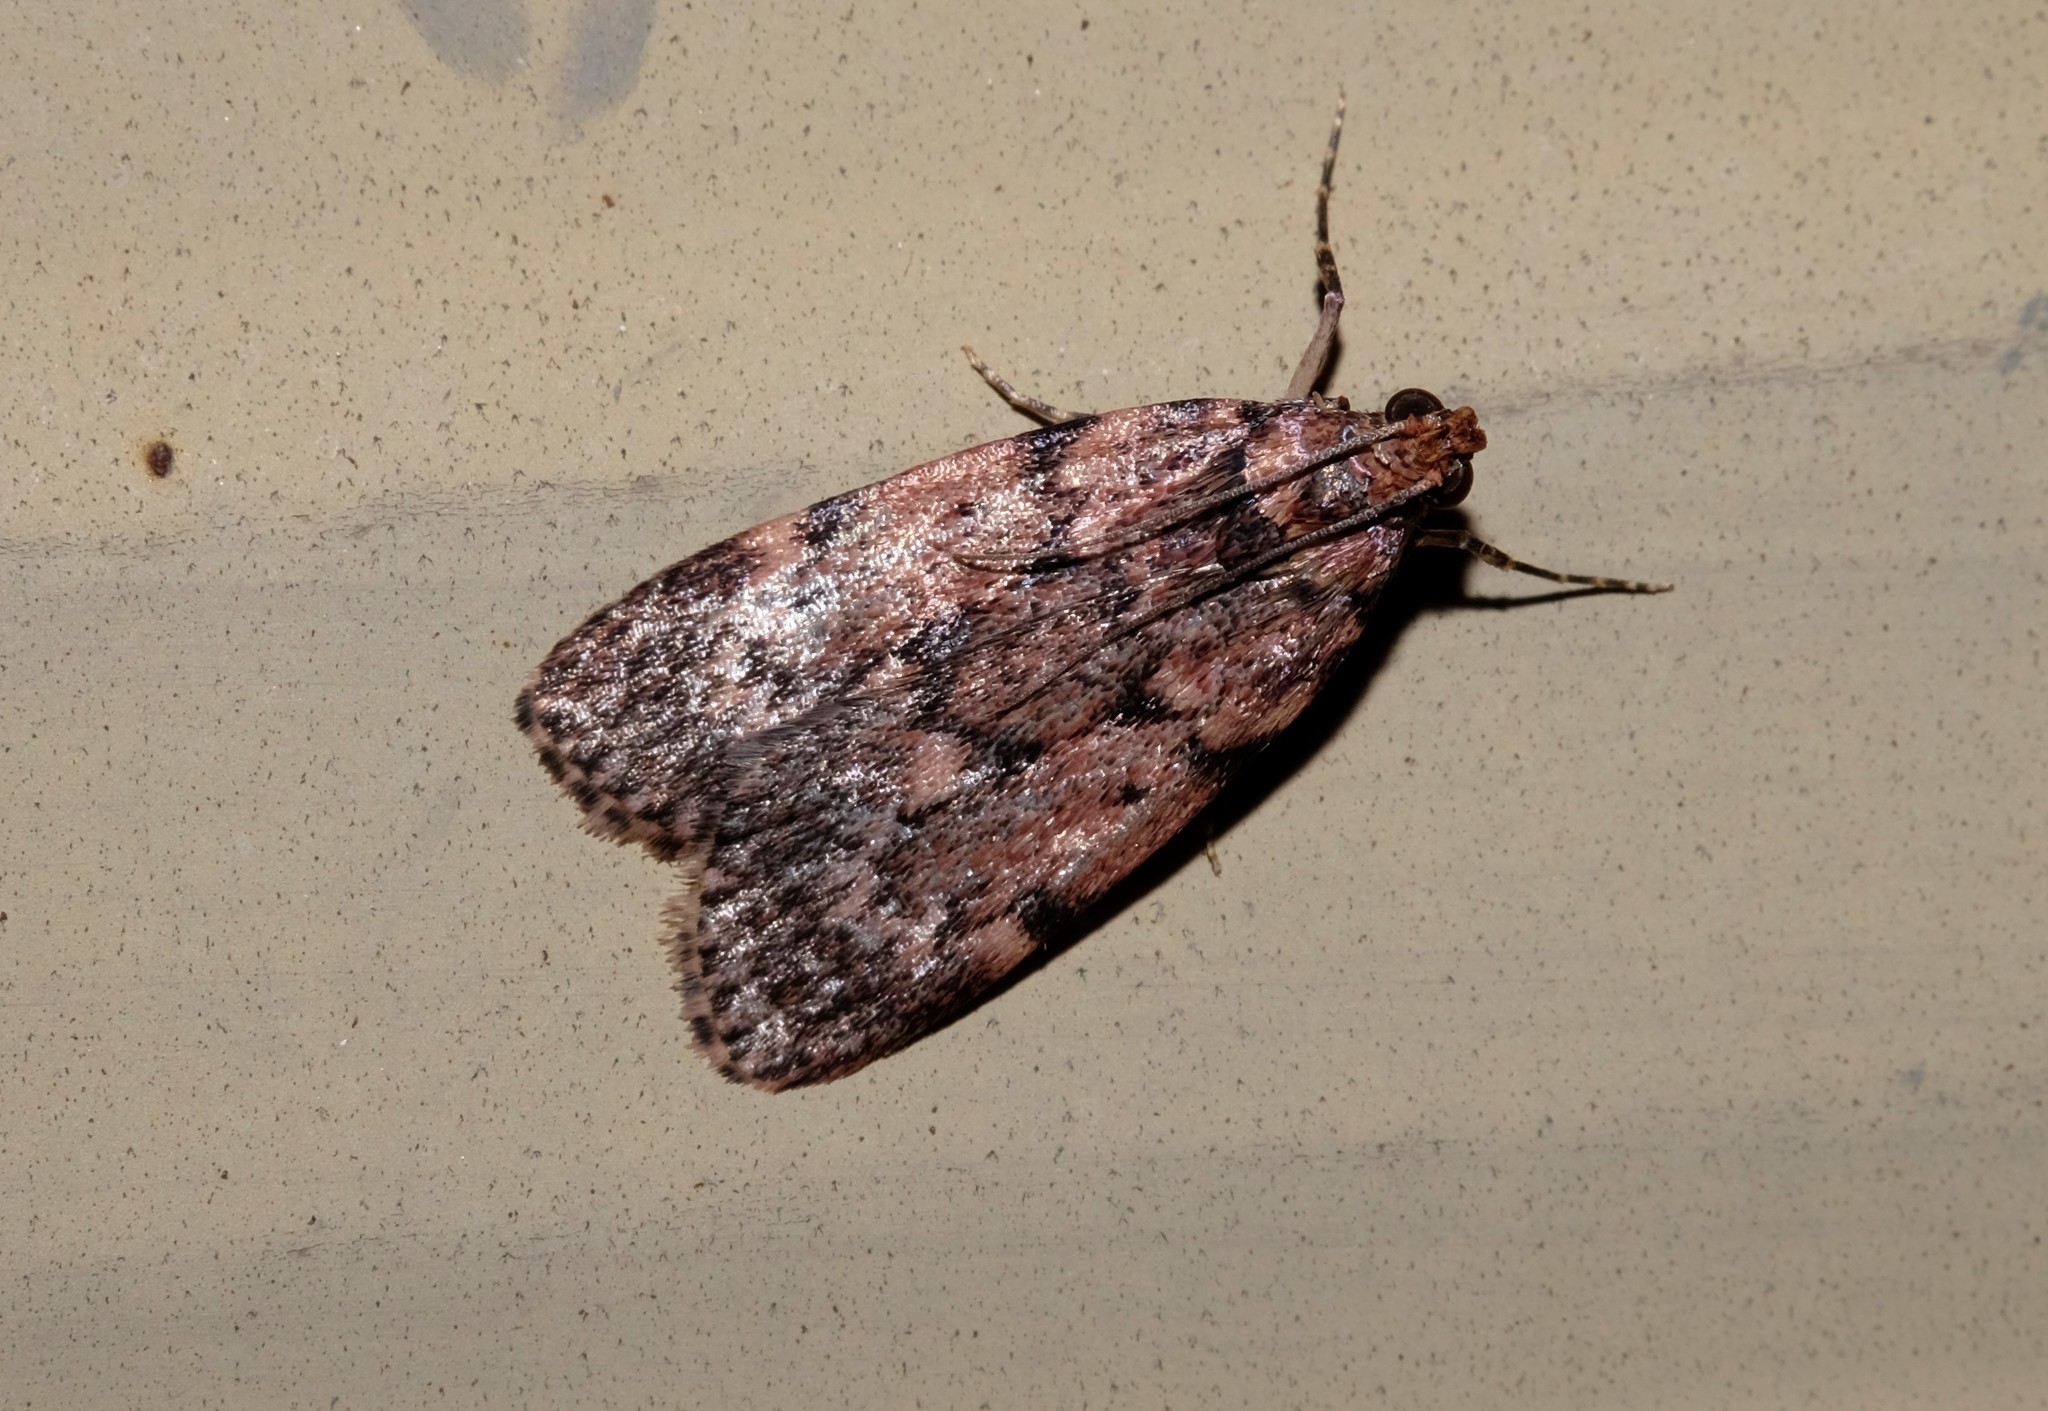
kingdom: Animalia
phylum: Arthropoda
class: Insecta
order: Lepidoptera
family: Pyralidae
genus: Mimaglossa
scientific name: Mimaglossa nauplialis
